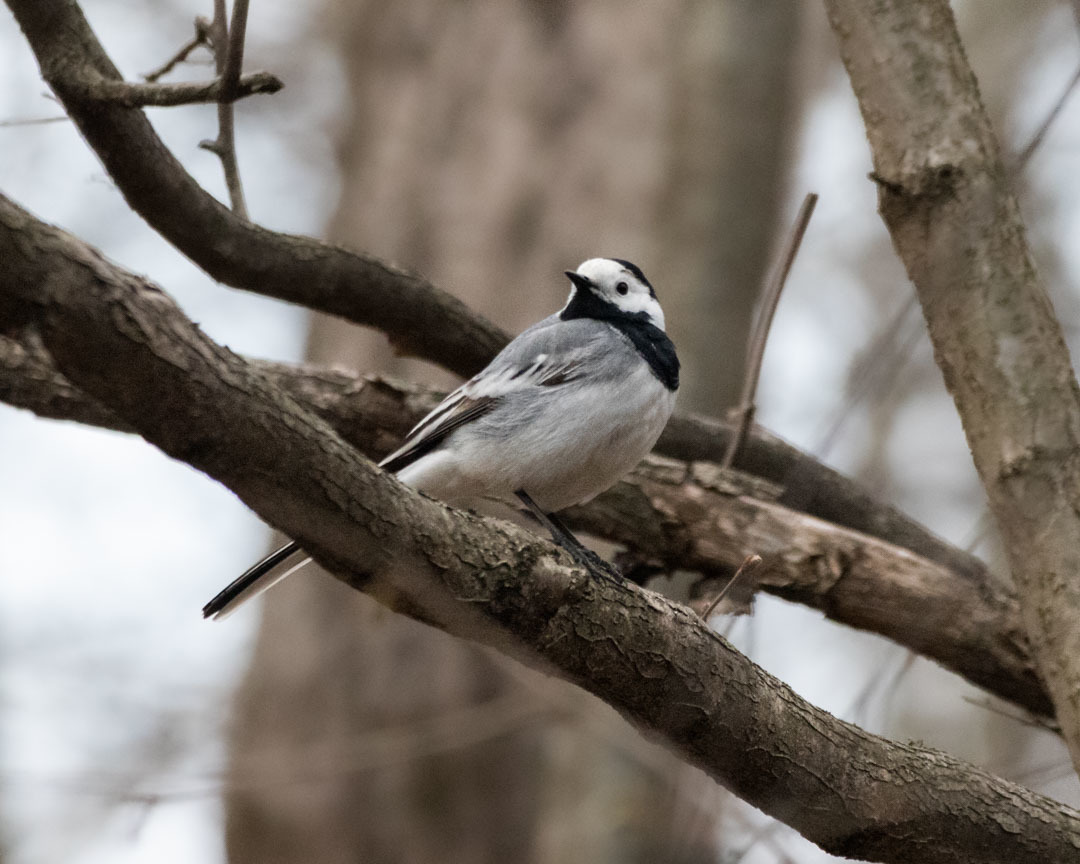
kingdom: Animalia
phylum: Chordata
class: Aves
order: Passeriformes
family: Motacillidae
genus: Motacilla
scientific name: Motacilla alba
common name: White wagtail
